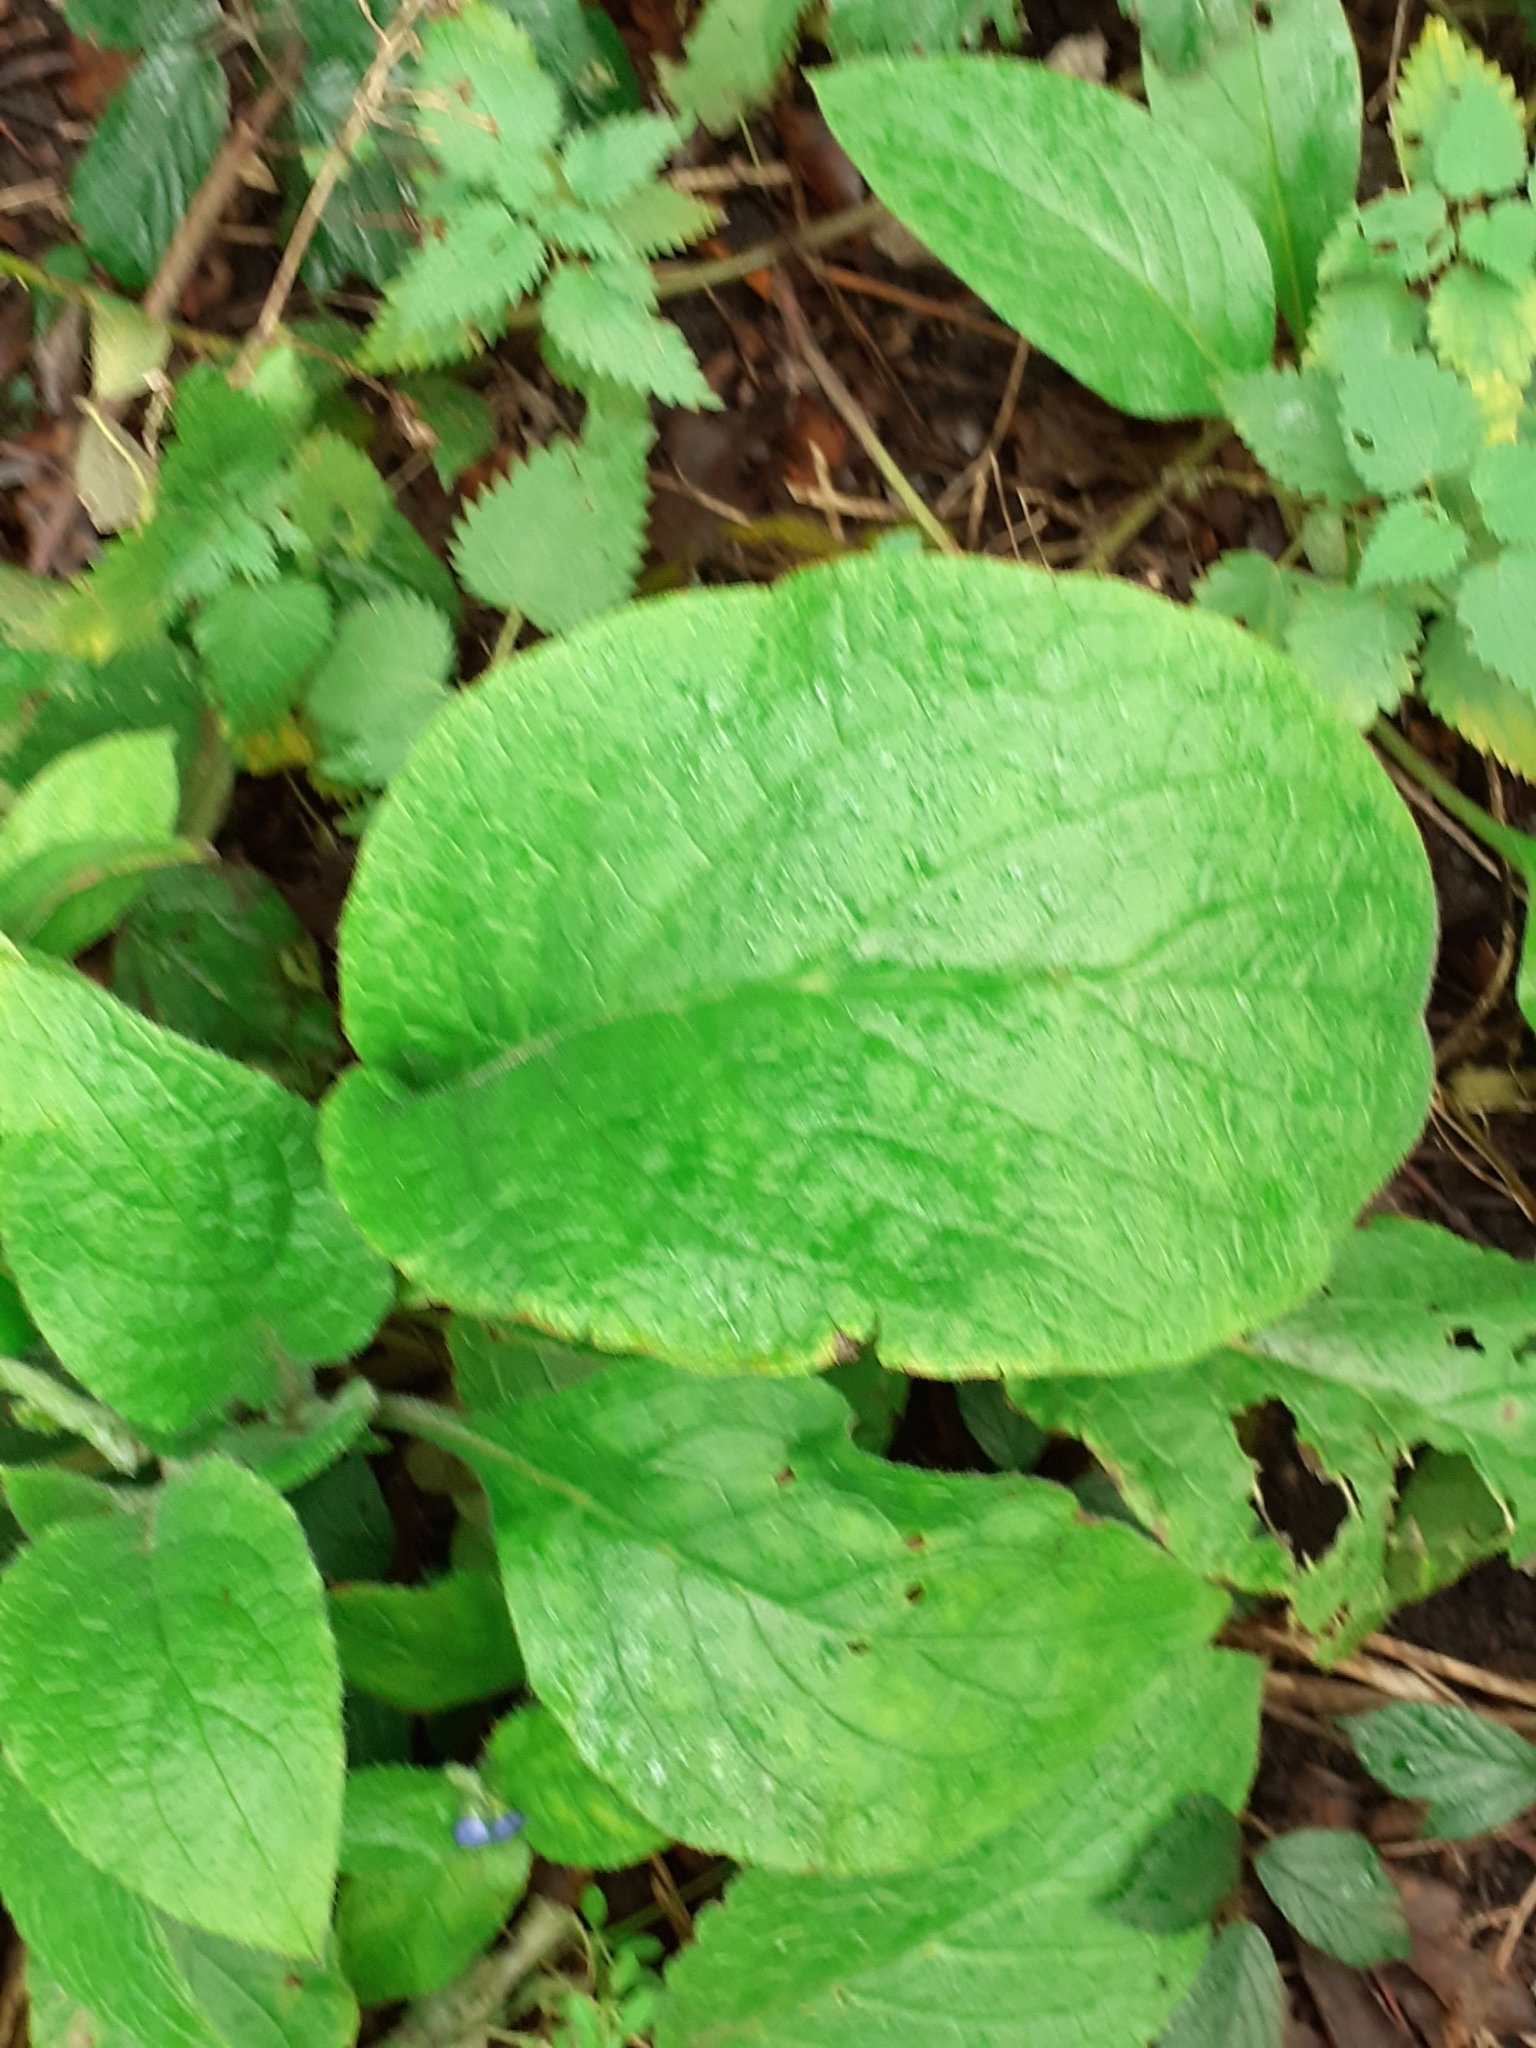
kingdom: Plantae
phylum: Tracheophyta
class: Magnoliopsida
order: Boraginales
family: Boraginaceae
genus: Pentaglottis
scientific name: Pentaglottis sempervirens
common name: Green alkanet
